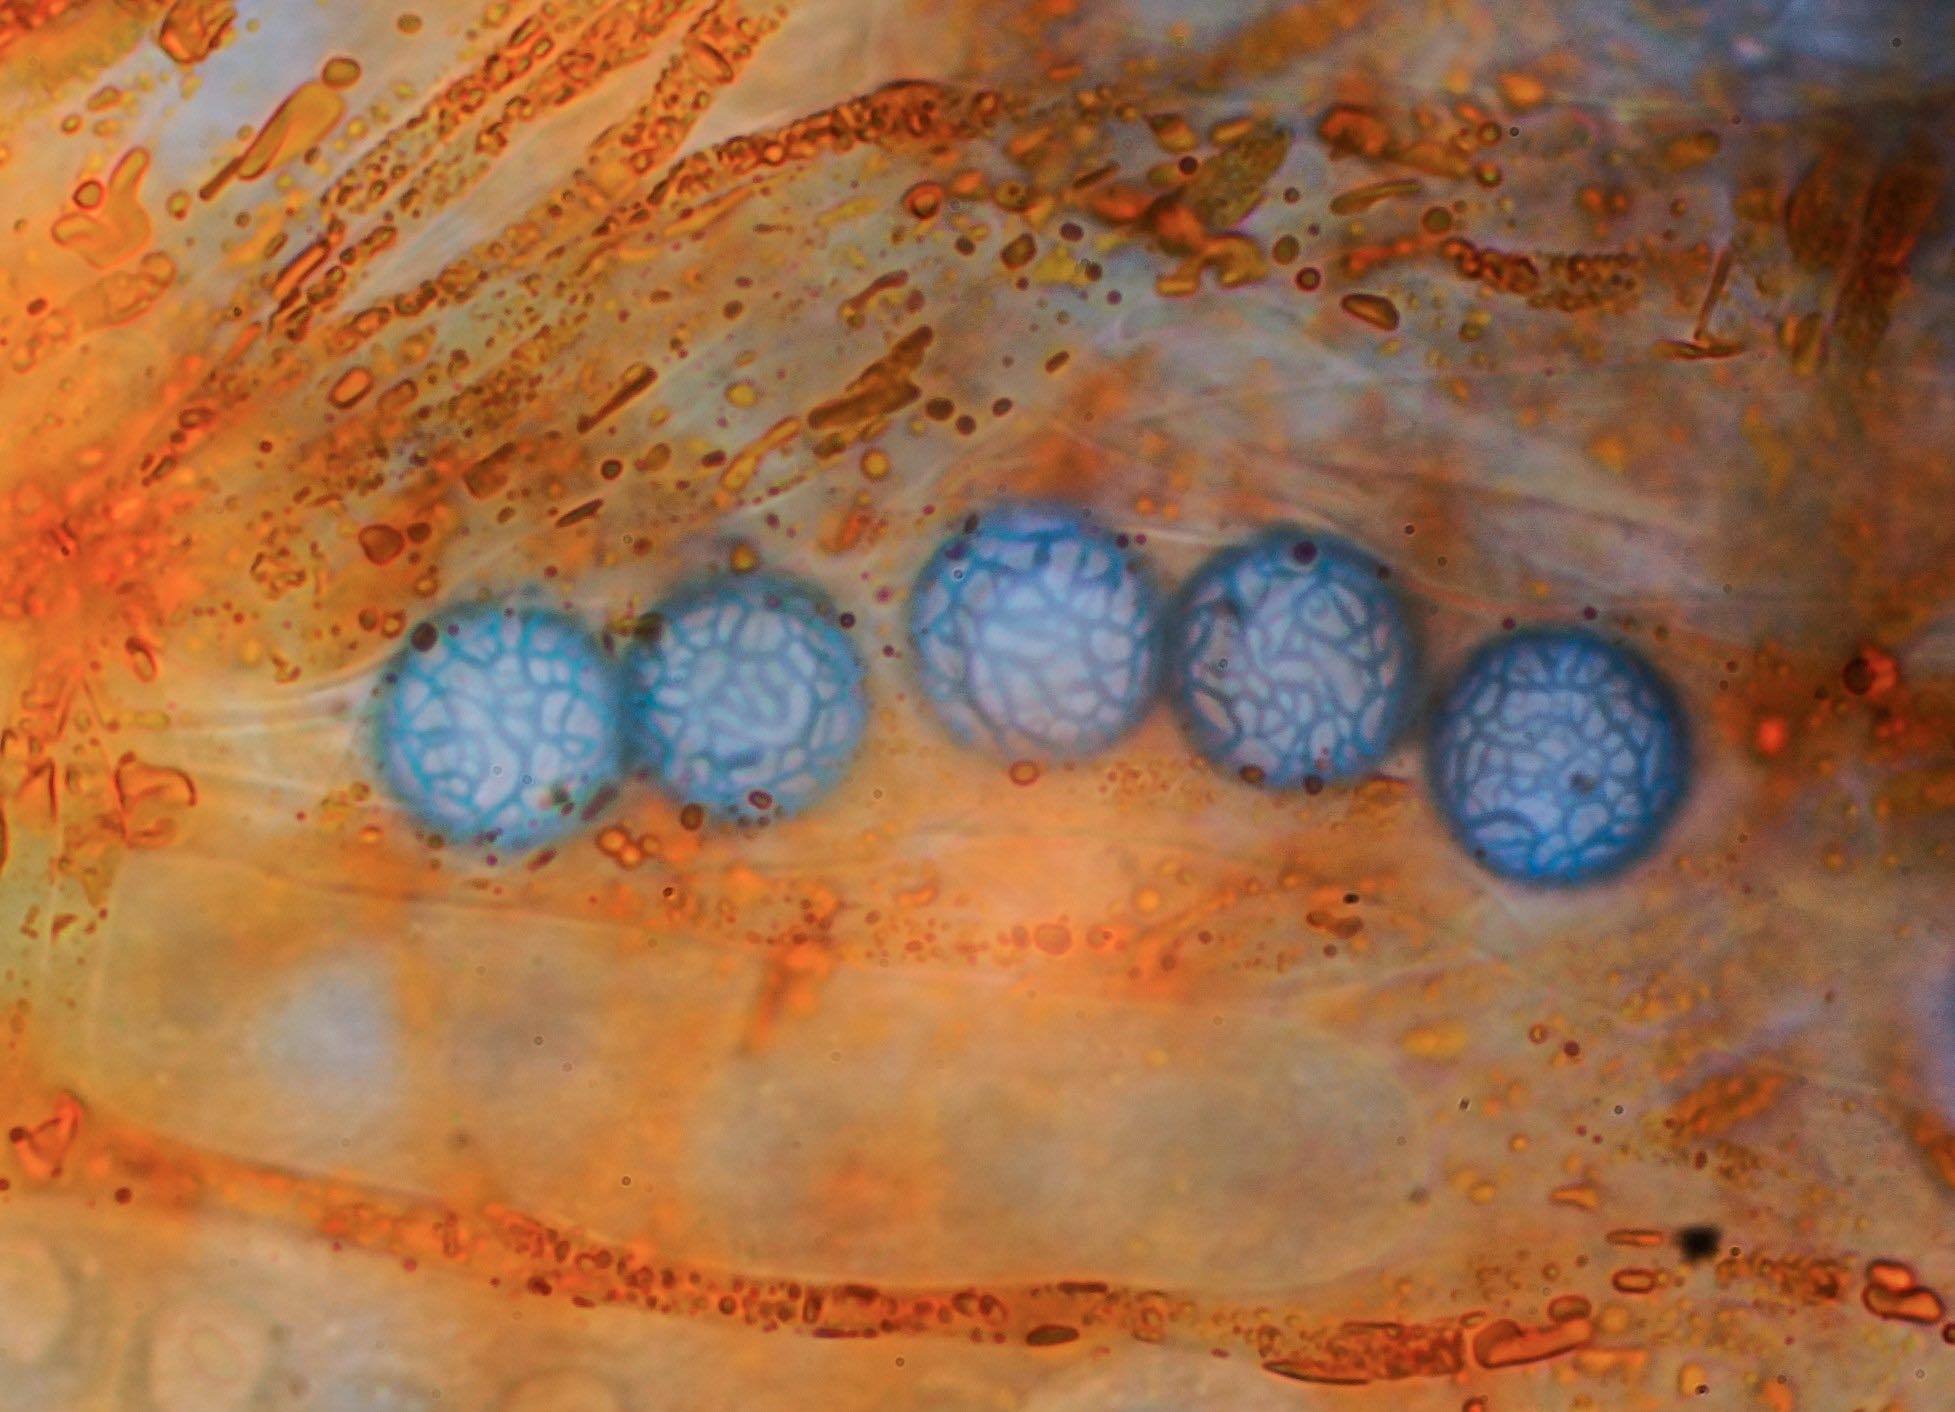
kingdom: Fungi
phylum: Ascomycota
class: Pezizomycetes
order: Pezizales
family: Pyronemataceae
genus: Lamprospora
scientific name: Lamprospora seaveri
